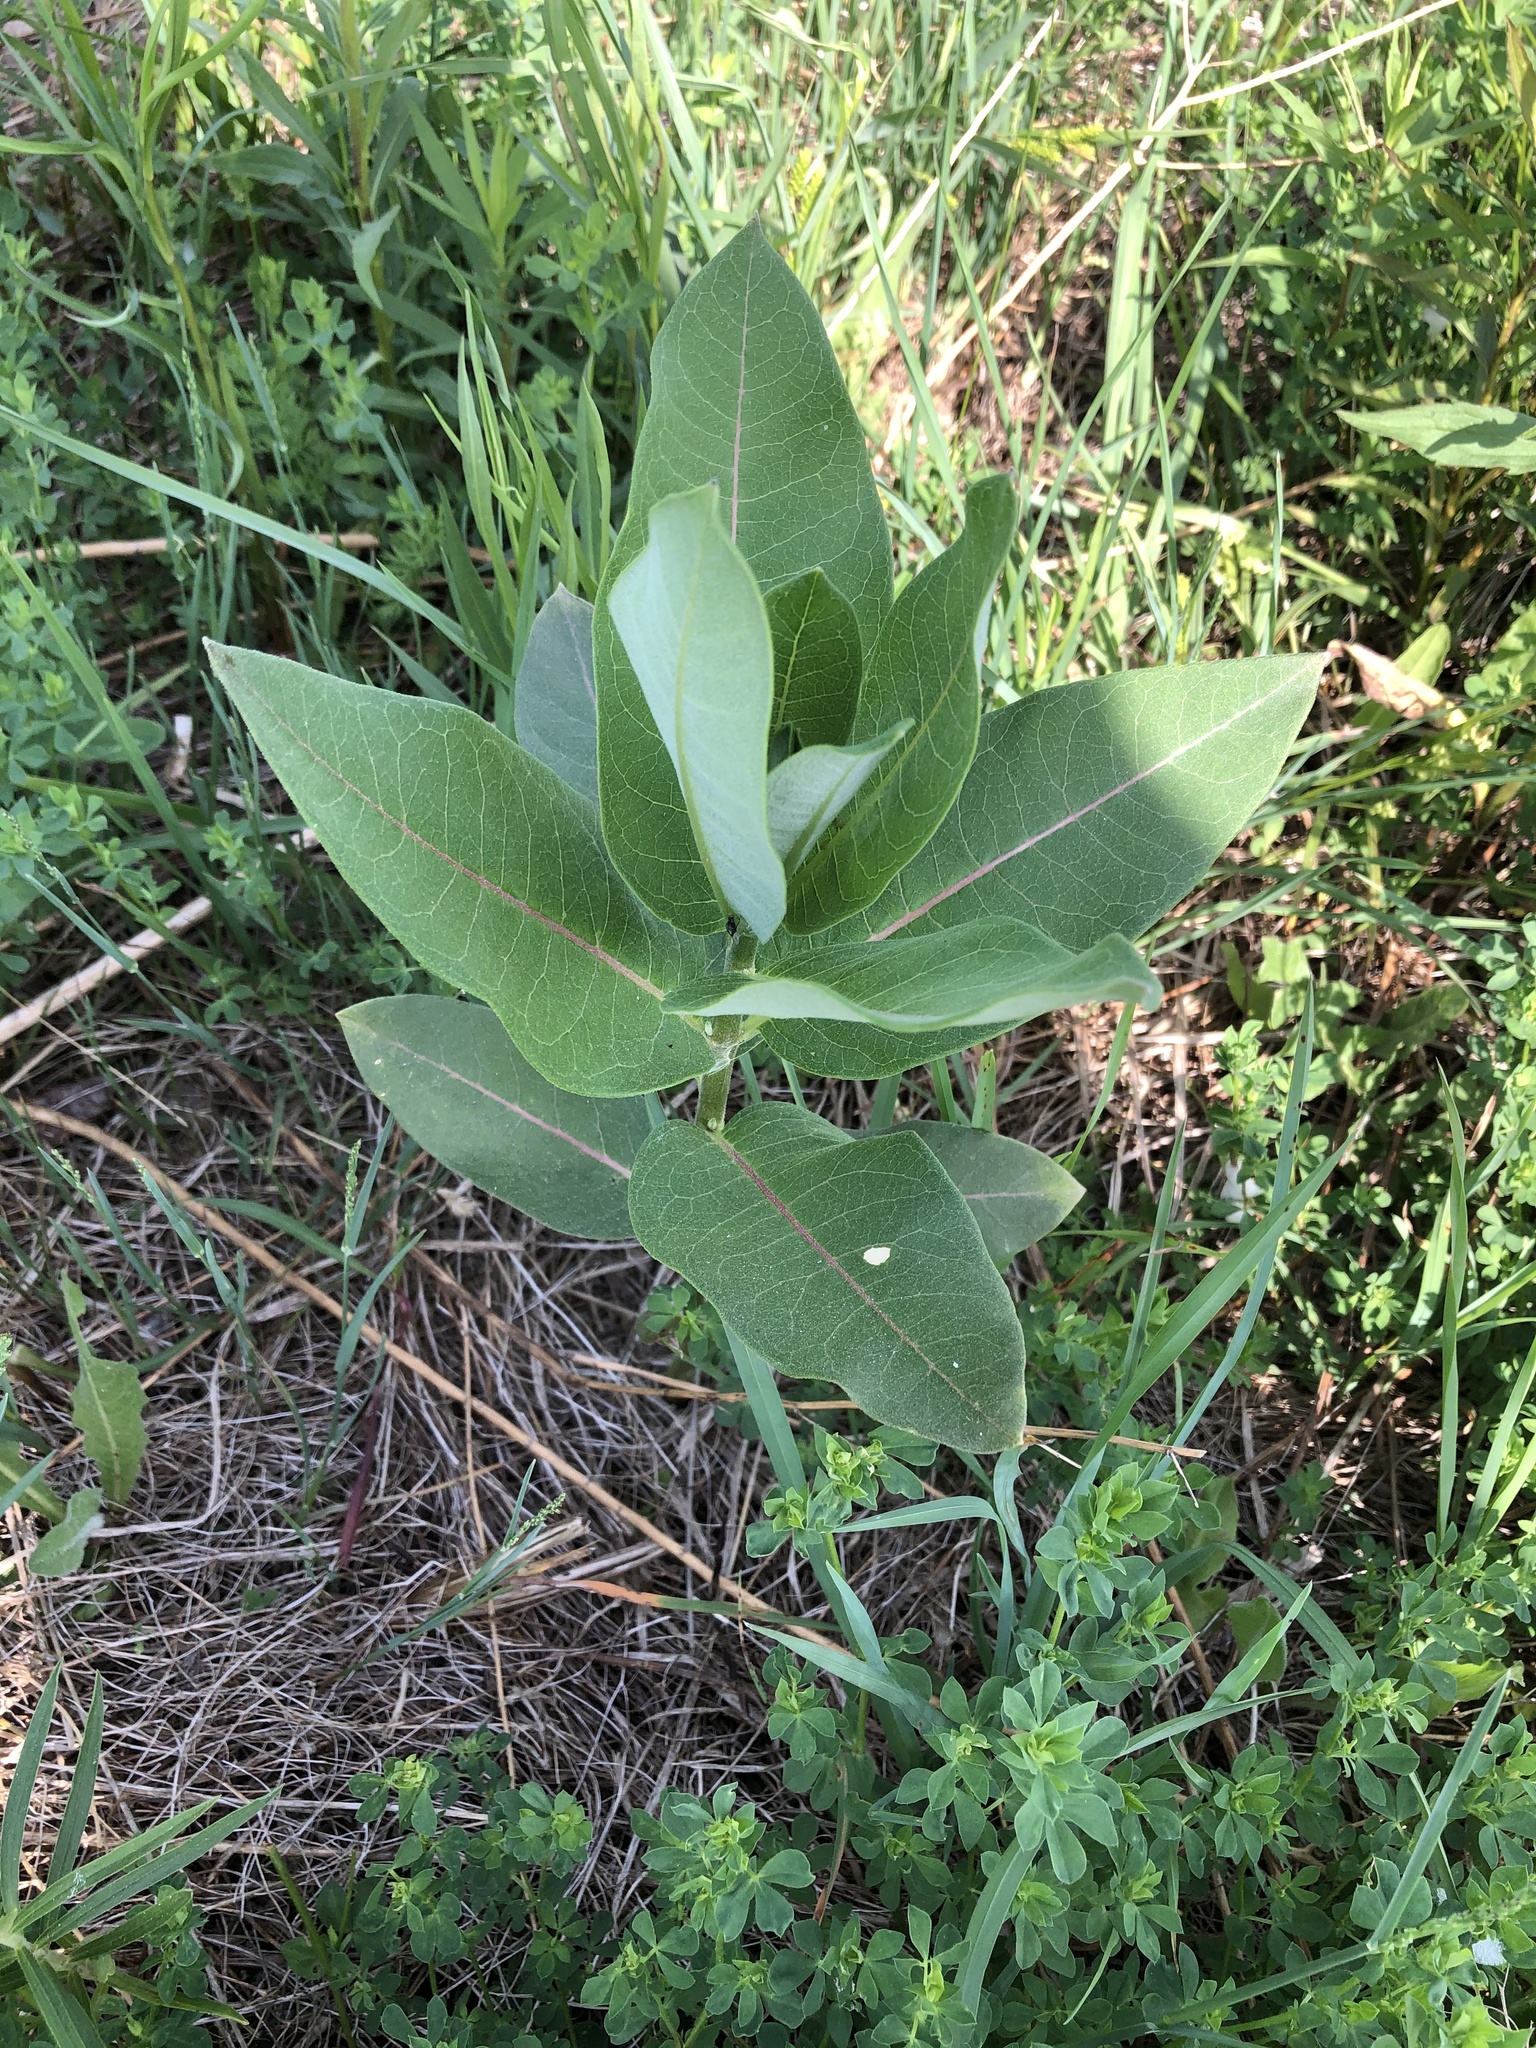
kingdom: Plantae
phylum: Tracheophyta
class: Magnoliopsida
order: Gentianales
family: Apocynaceae
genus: Asclepias
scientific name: Asclepias syriaca
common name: Common milkweed
